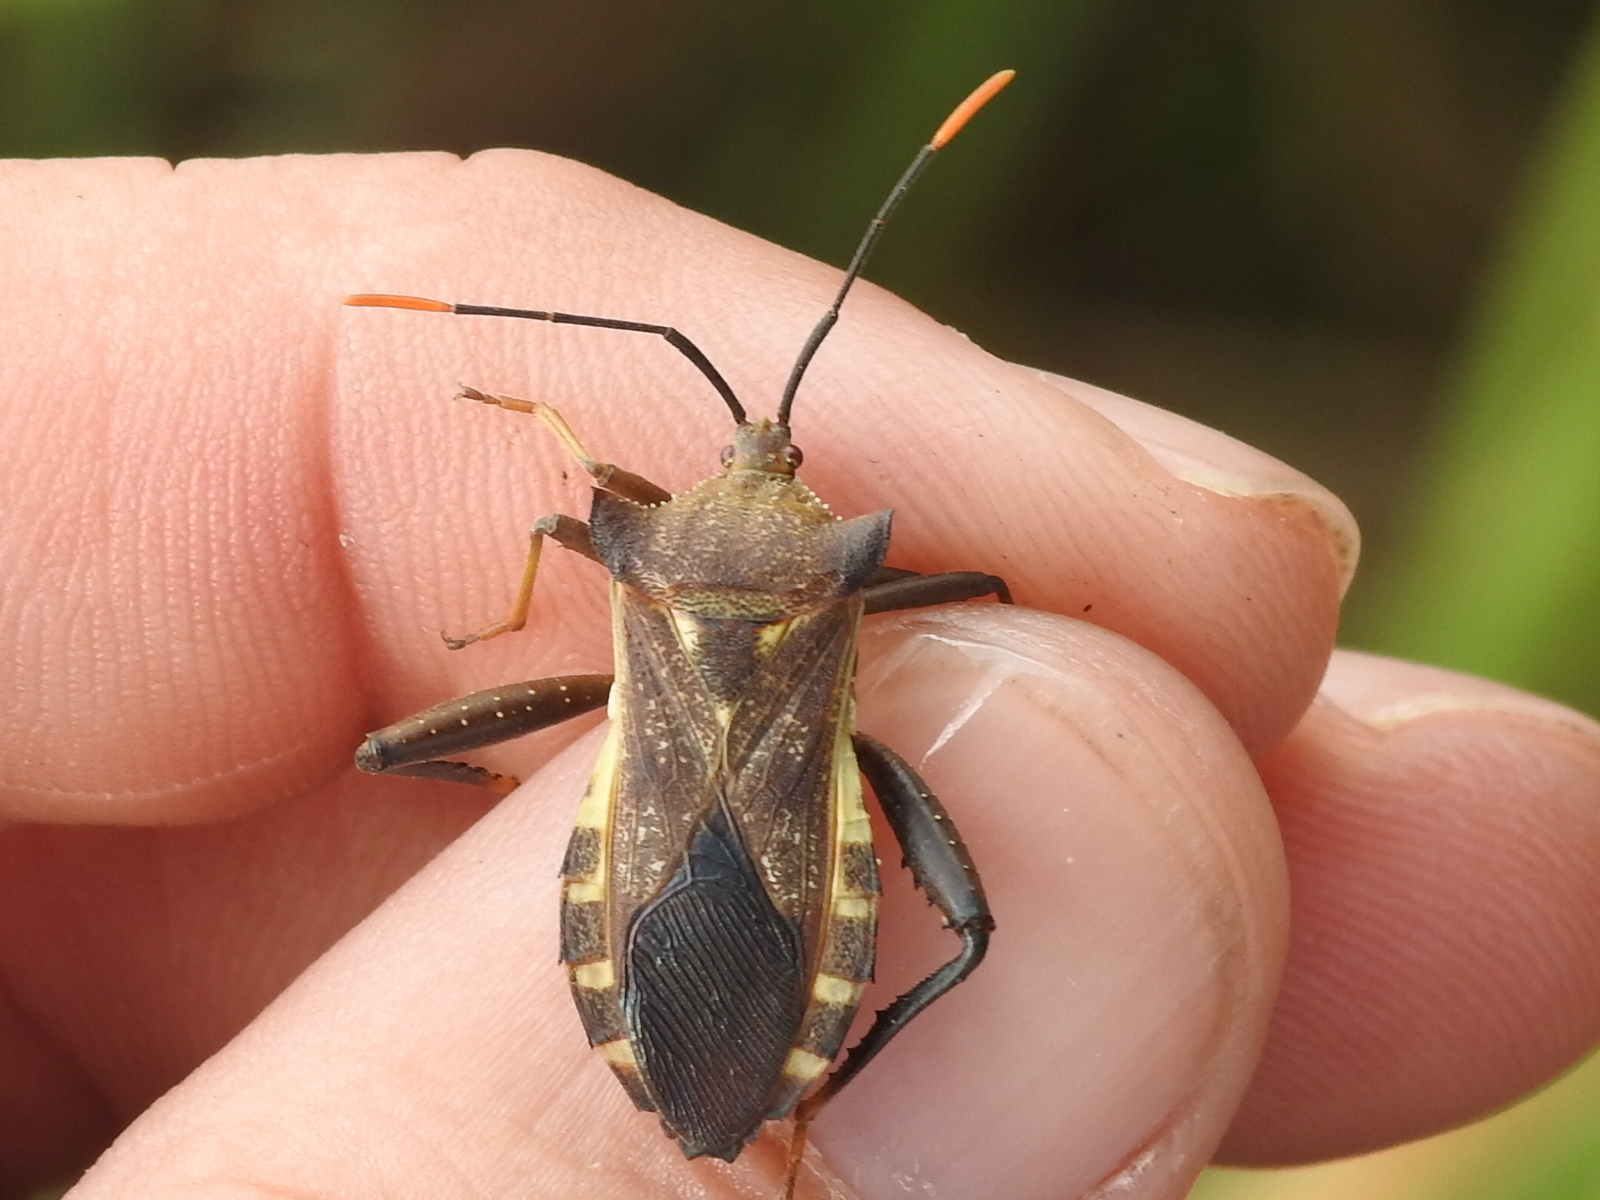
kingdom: Animalia
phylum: Arthropoda
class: Insecta
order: Hemiptera
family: Coreidae
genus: Mozena
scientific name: Mozena lunata
